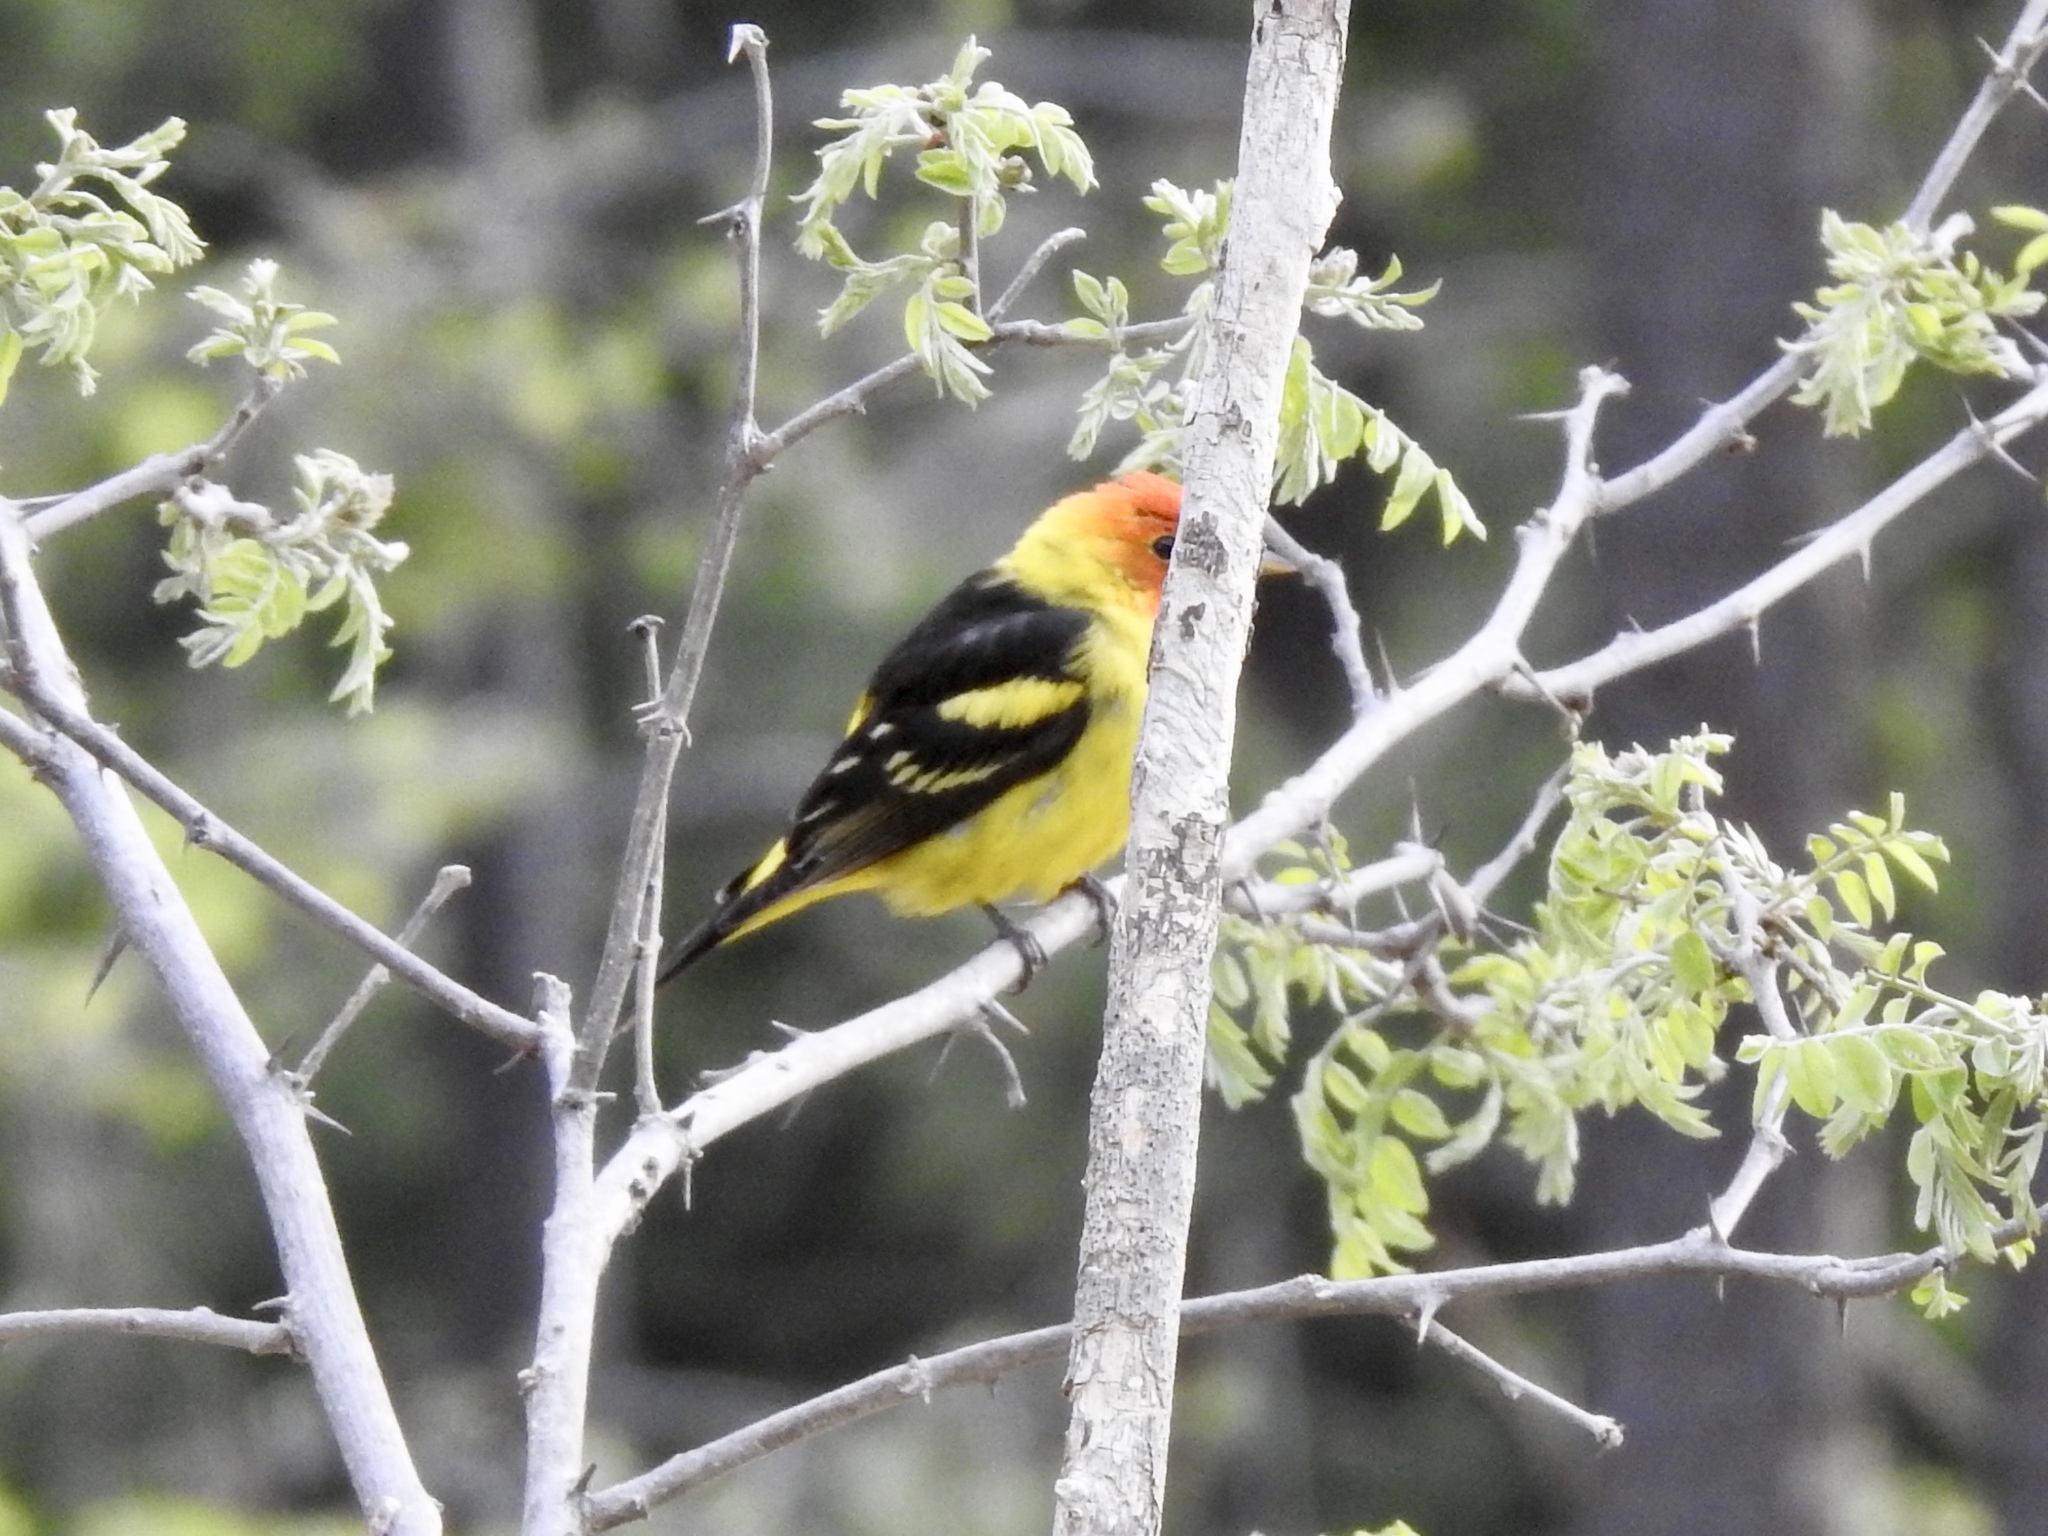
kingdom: Animalia
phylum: Chordata
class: Aves
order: Passeriformes
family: Cardinalidae
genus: Piranga
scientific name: Piranga ludoviciana
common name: Western tanager
